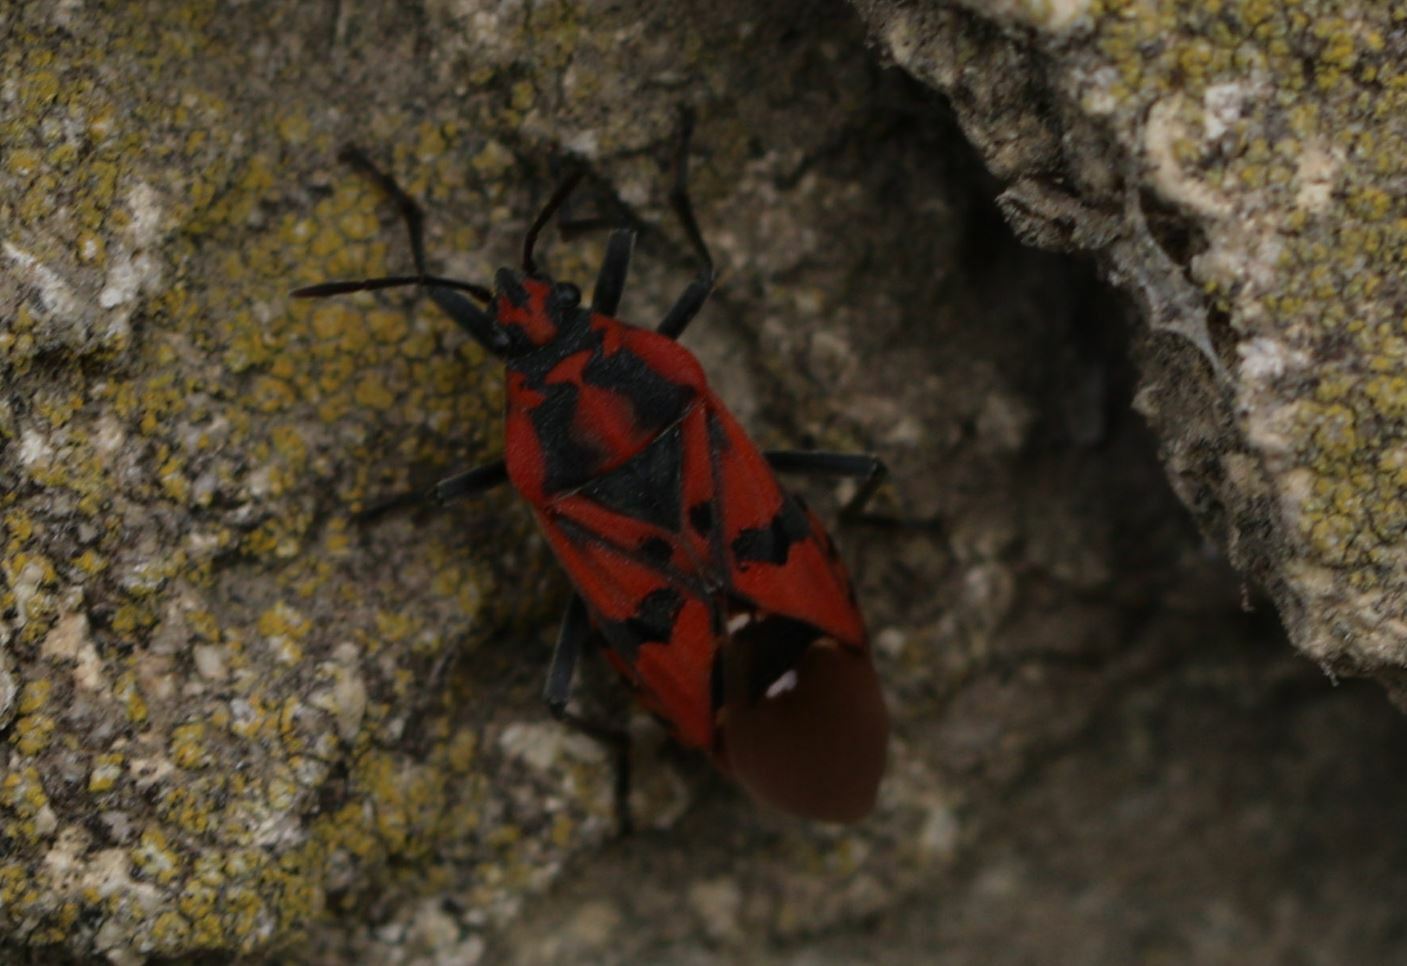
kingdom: Animalia
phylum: Arthropoda
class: Insecta
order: Hemiptera
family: Lygaeidae
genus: Spilostethus
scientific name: Spilostethus pandurus
